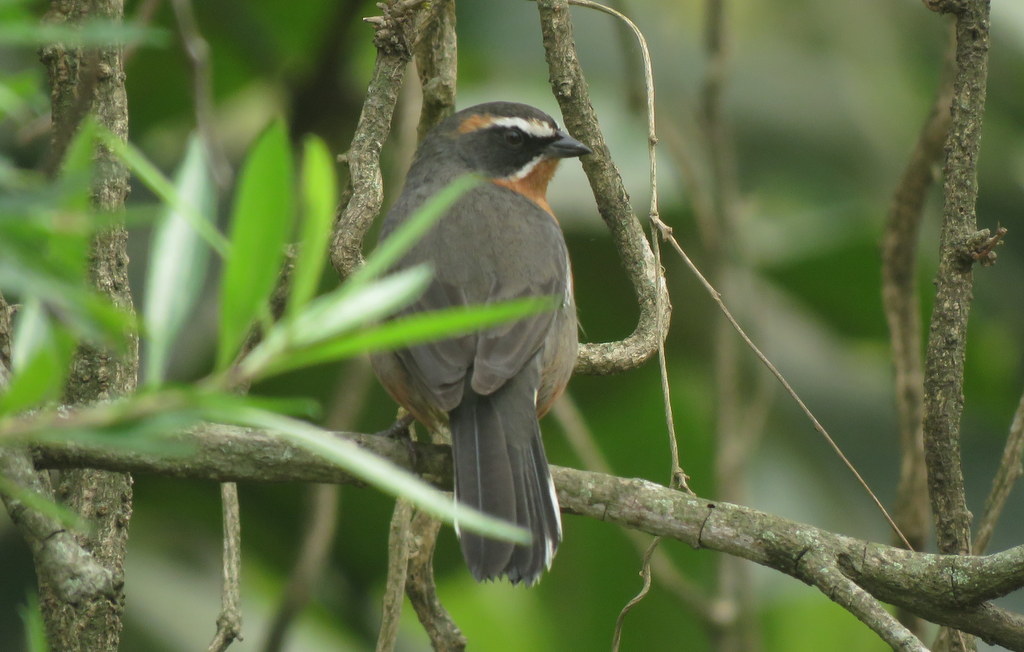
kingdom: Animalia
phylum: Chordata
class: Aves
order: Passeriformes
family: Thraupidae
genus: Poospiza
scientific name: Poospiza nigrorufa
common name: Black-and-rufous warbling finch
